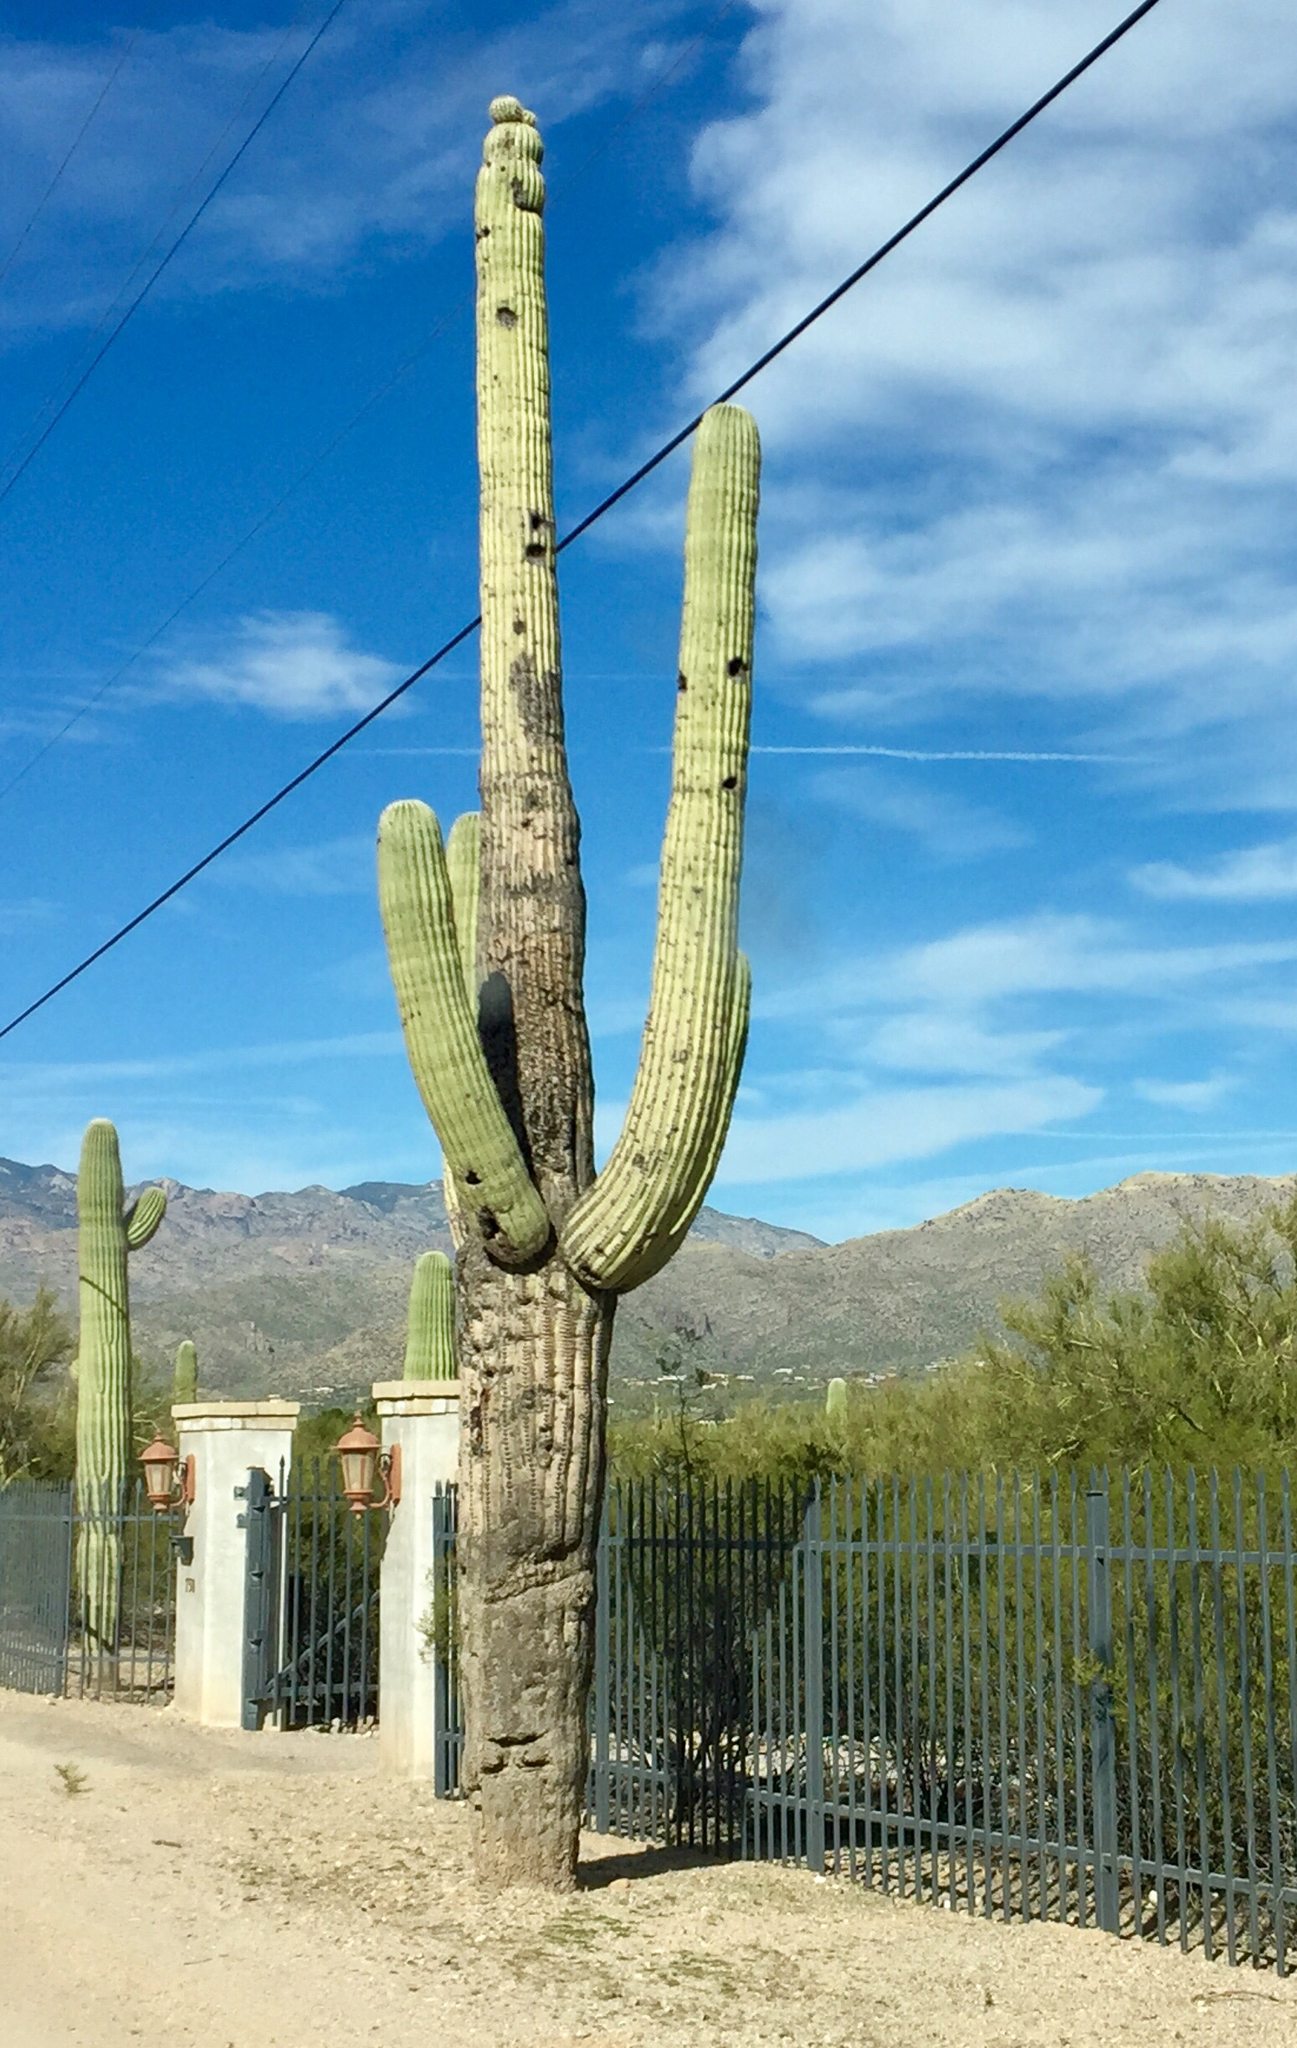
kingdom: Plantae
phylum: Tracheophyta
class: Magnoliopsida
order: Caryophyllales
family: Cactaceae
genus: Carnegiea
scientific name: Carnegiea gigantea
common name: Saguaro
